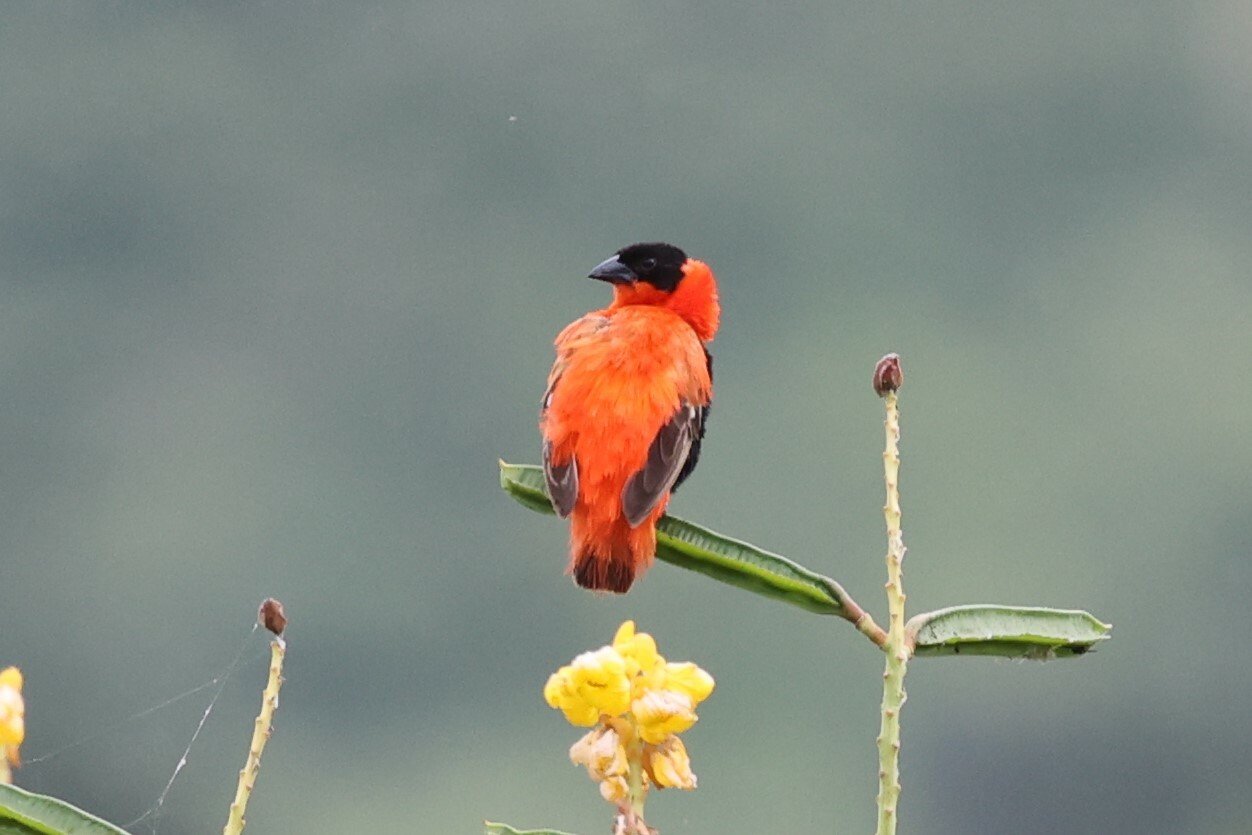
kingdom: Animalia
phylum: Chordata
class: Aves
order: Passeriformes
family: Ploceidae
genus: Euplectes
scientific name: Euplectes franciscanus
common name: Northern red bishop
